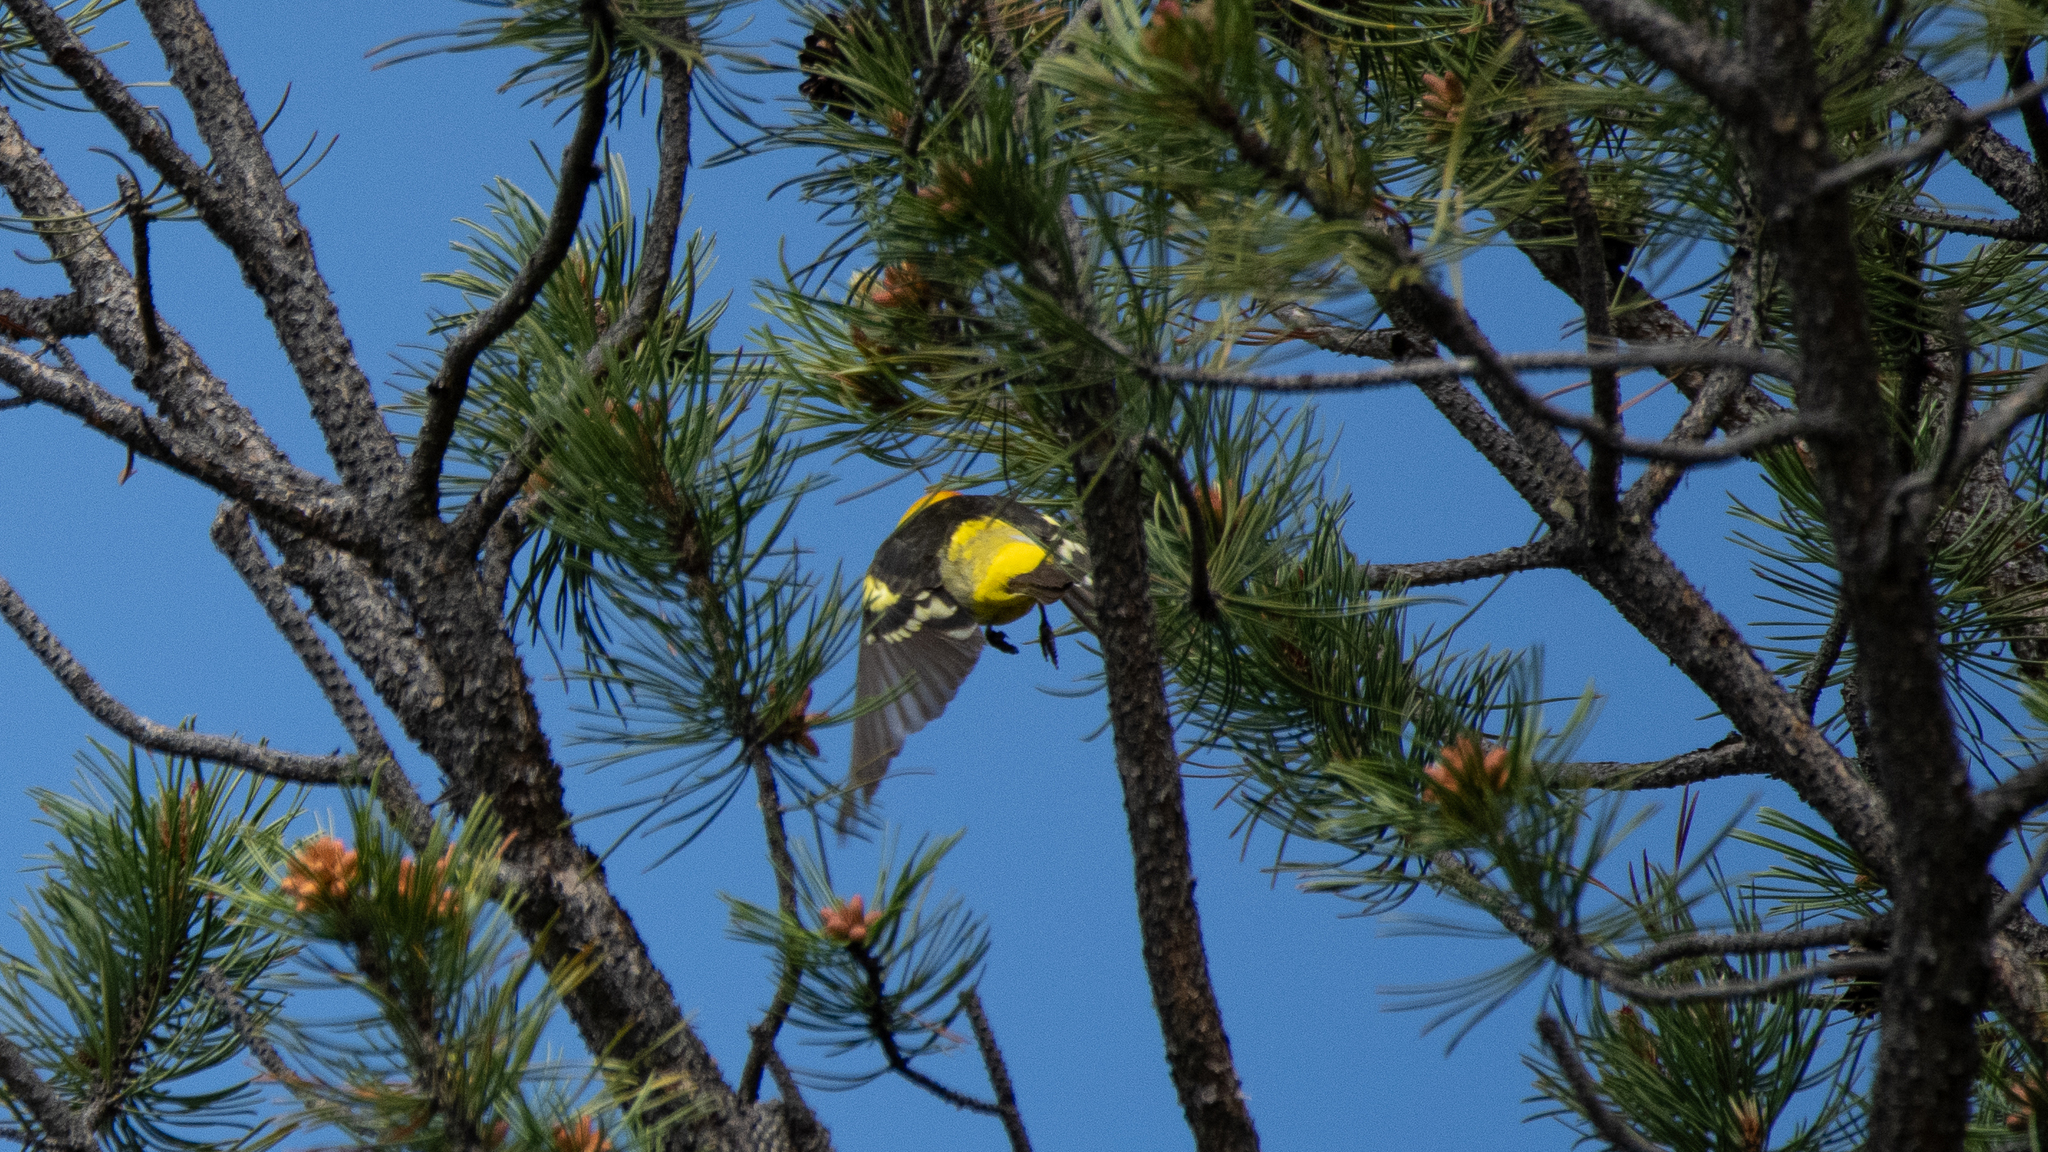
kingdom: Animalia
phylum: Chordata
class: Aves
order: Passeriformes
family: Cardinalidae
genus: Piranga
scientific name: Piranga ludoviciana
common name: Western tanager
